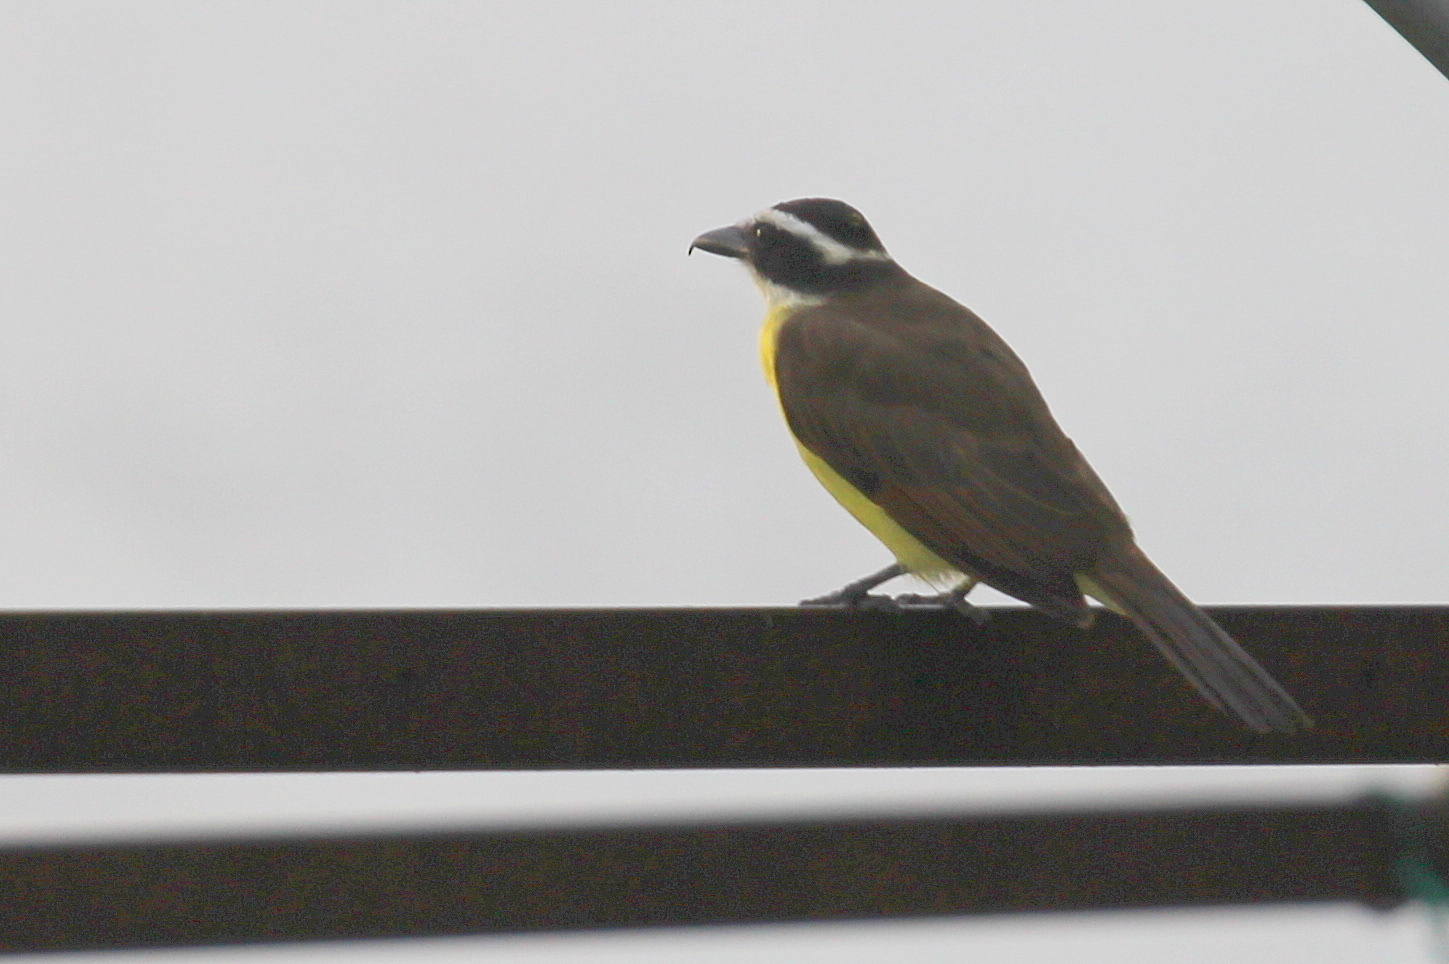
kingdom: Animalia
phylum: Chordata
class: Aves
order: Passeriformes
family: Tyrannidae
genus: Pitangus
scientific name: Pitangus sulphuratus
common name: Great kiskadee
